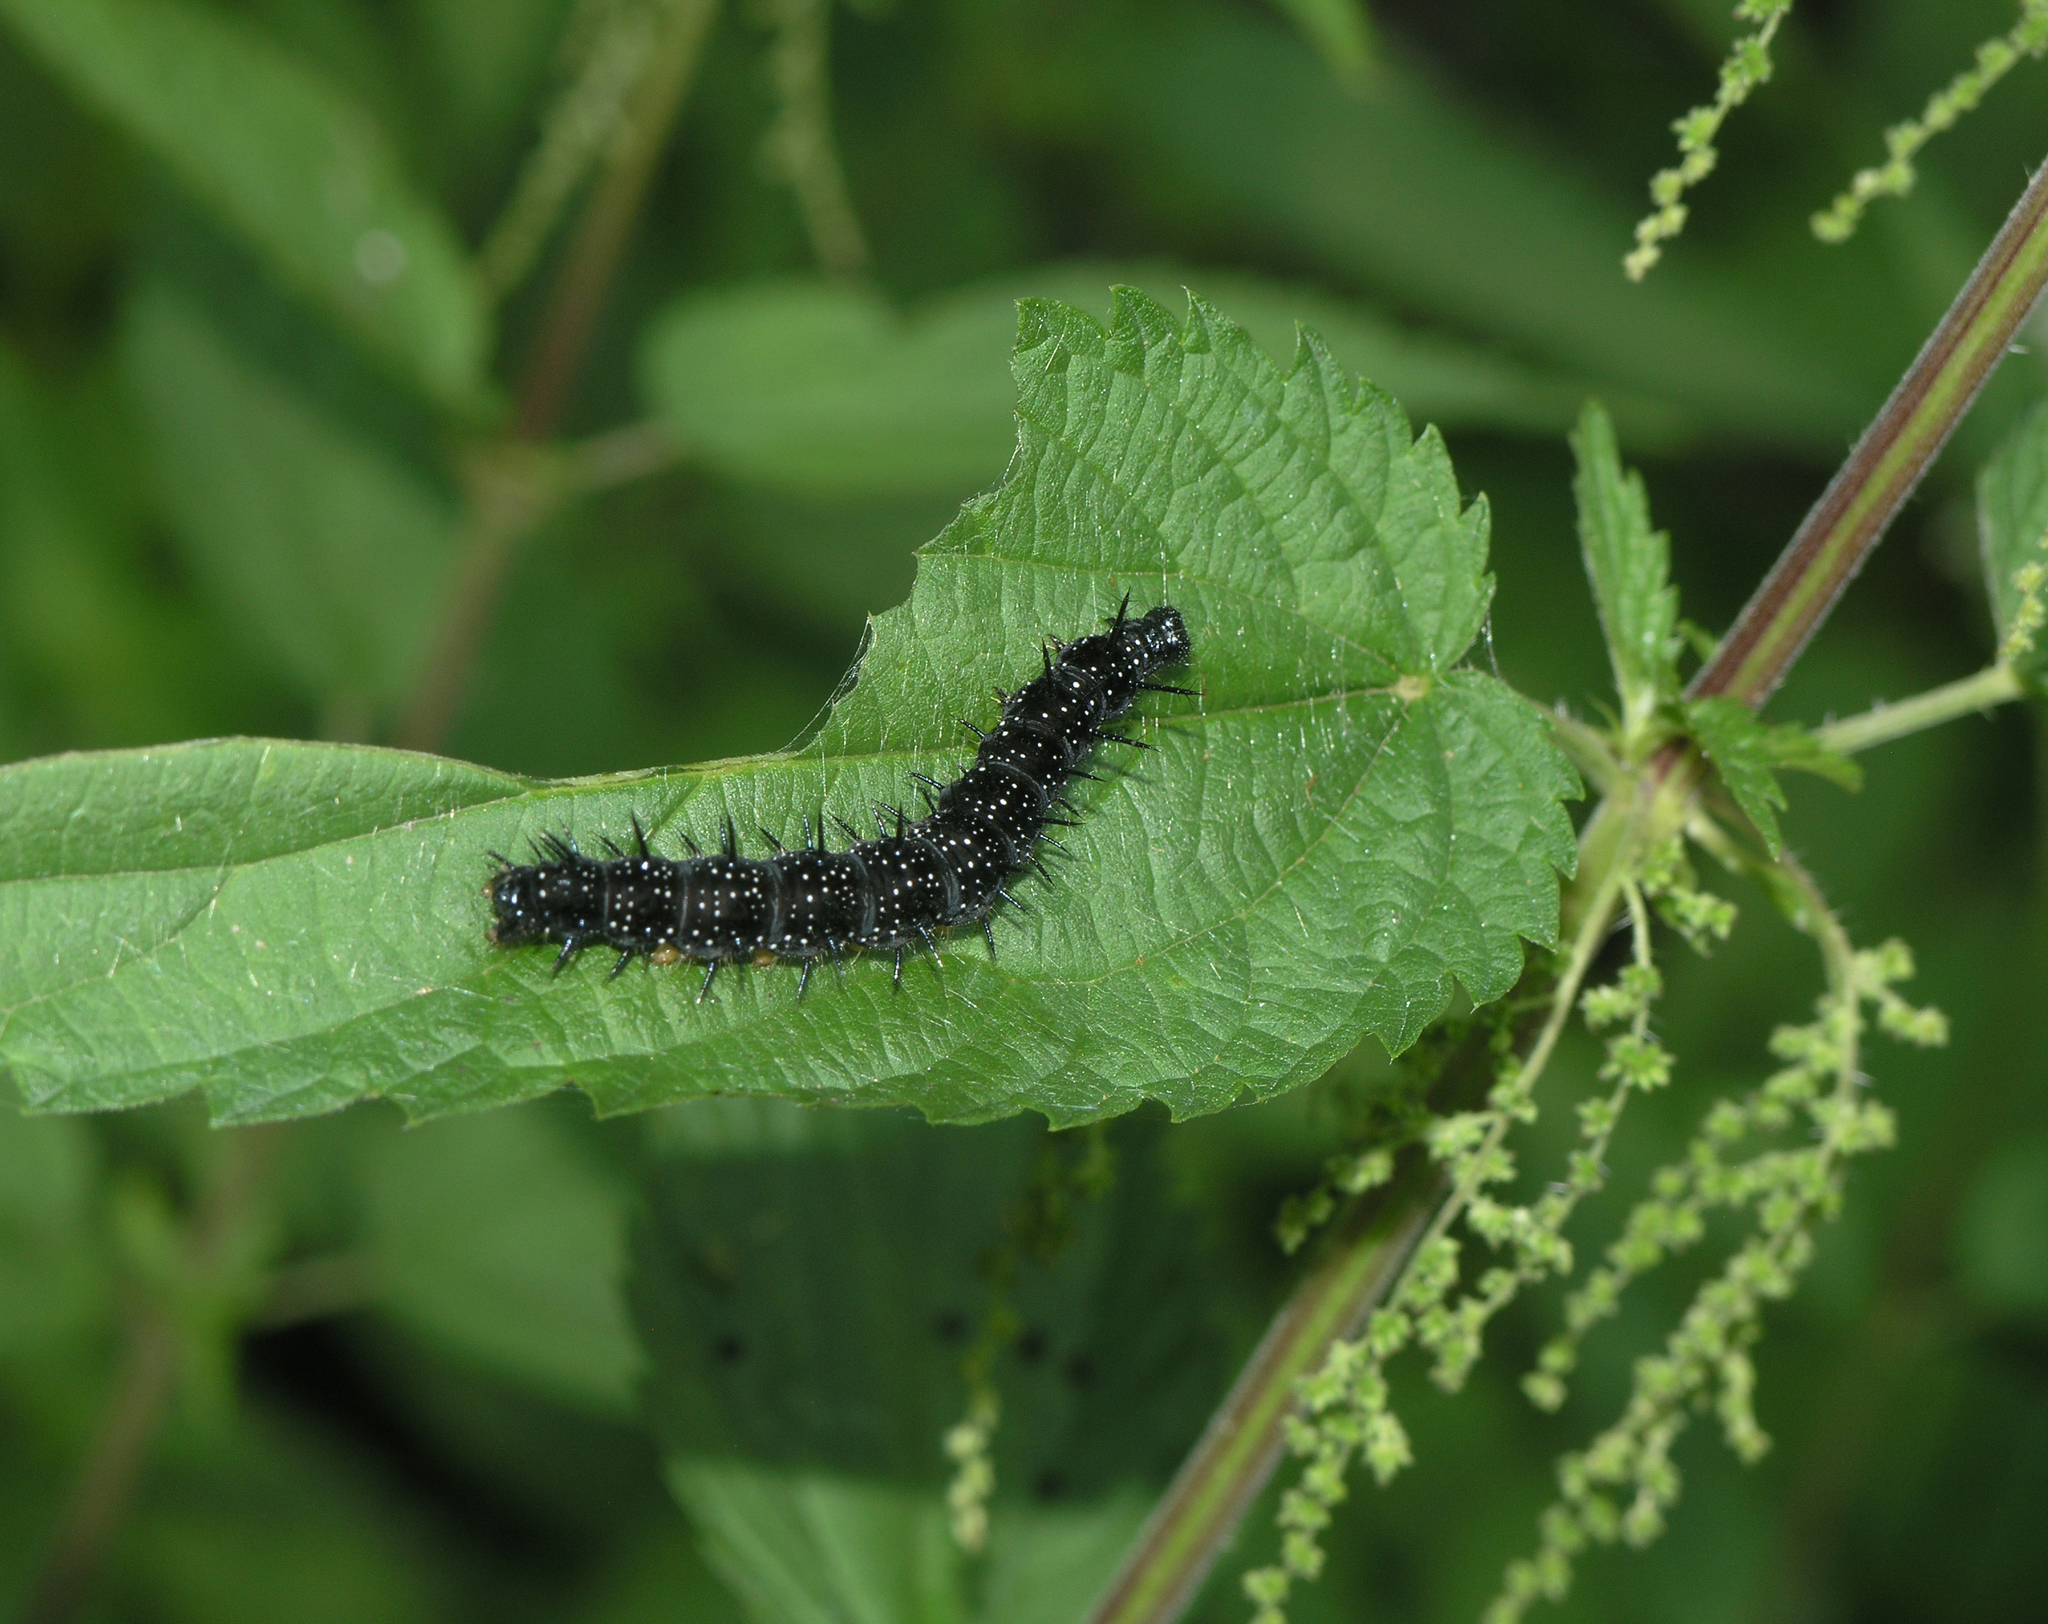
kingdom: Plantae
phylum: Tracheophyta
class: Magnoliopsida
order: Rosales
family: Urticaceae
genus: Urtica
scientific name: Urtica dioica
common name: Common nettle
